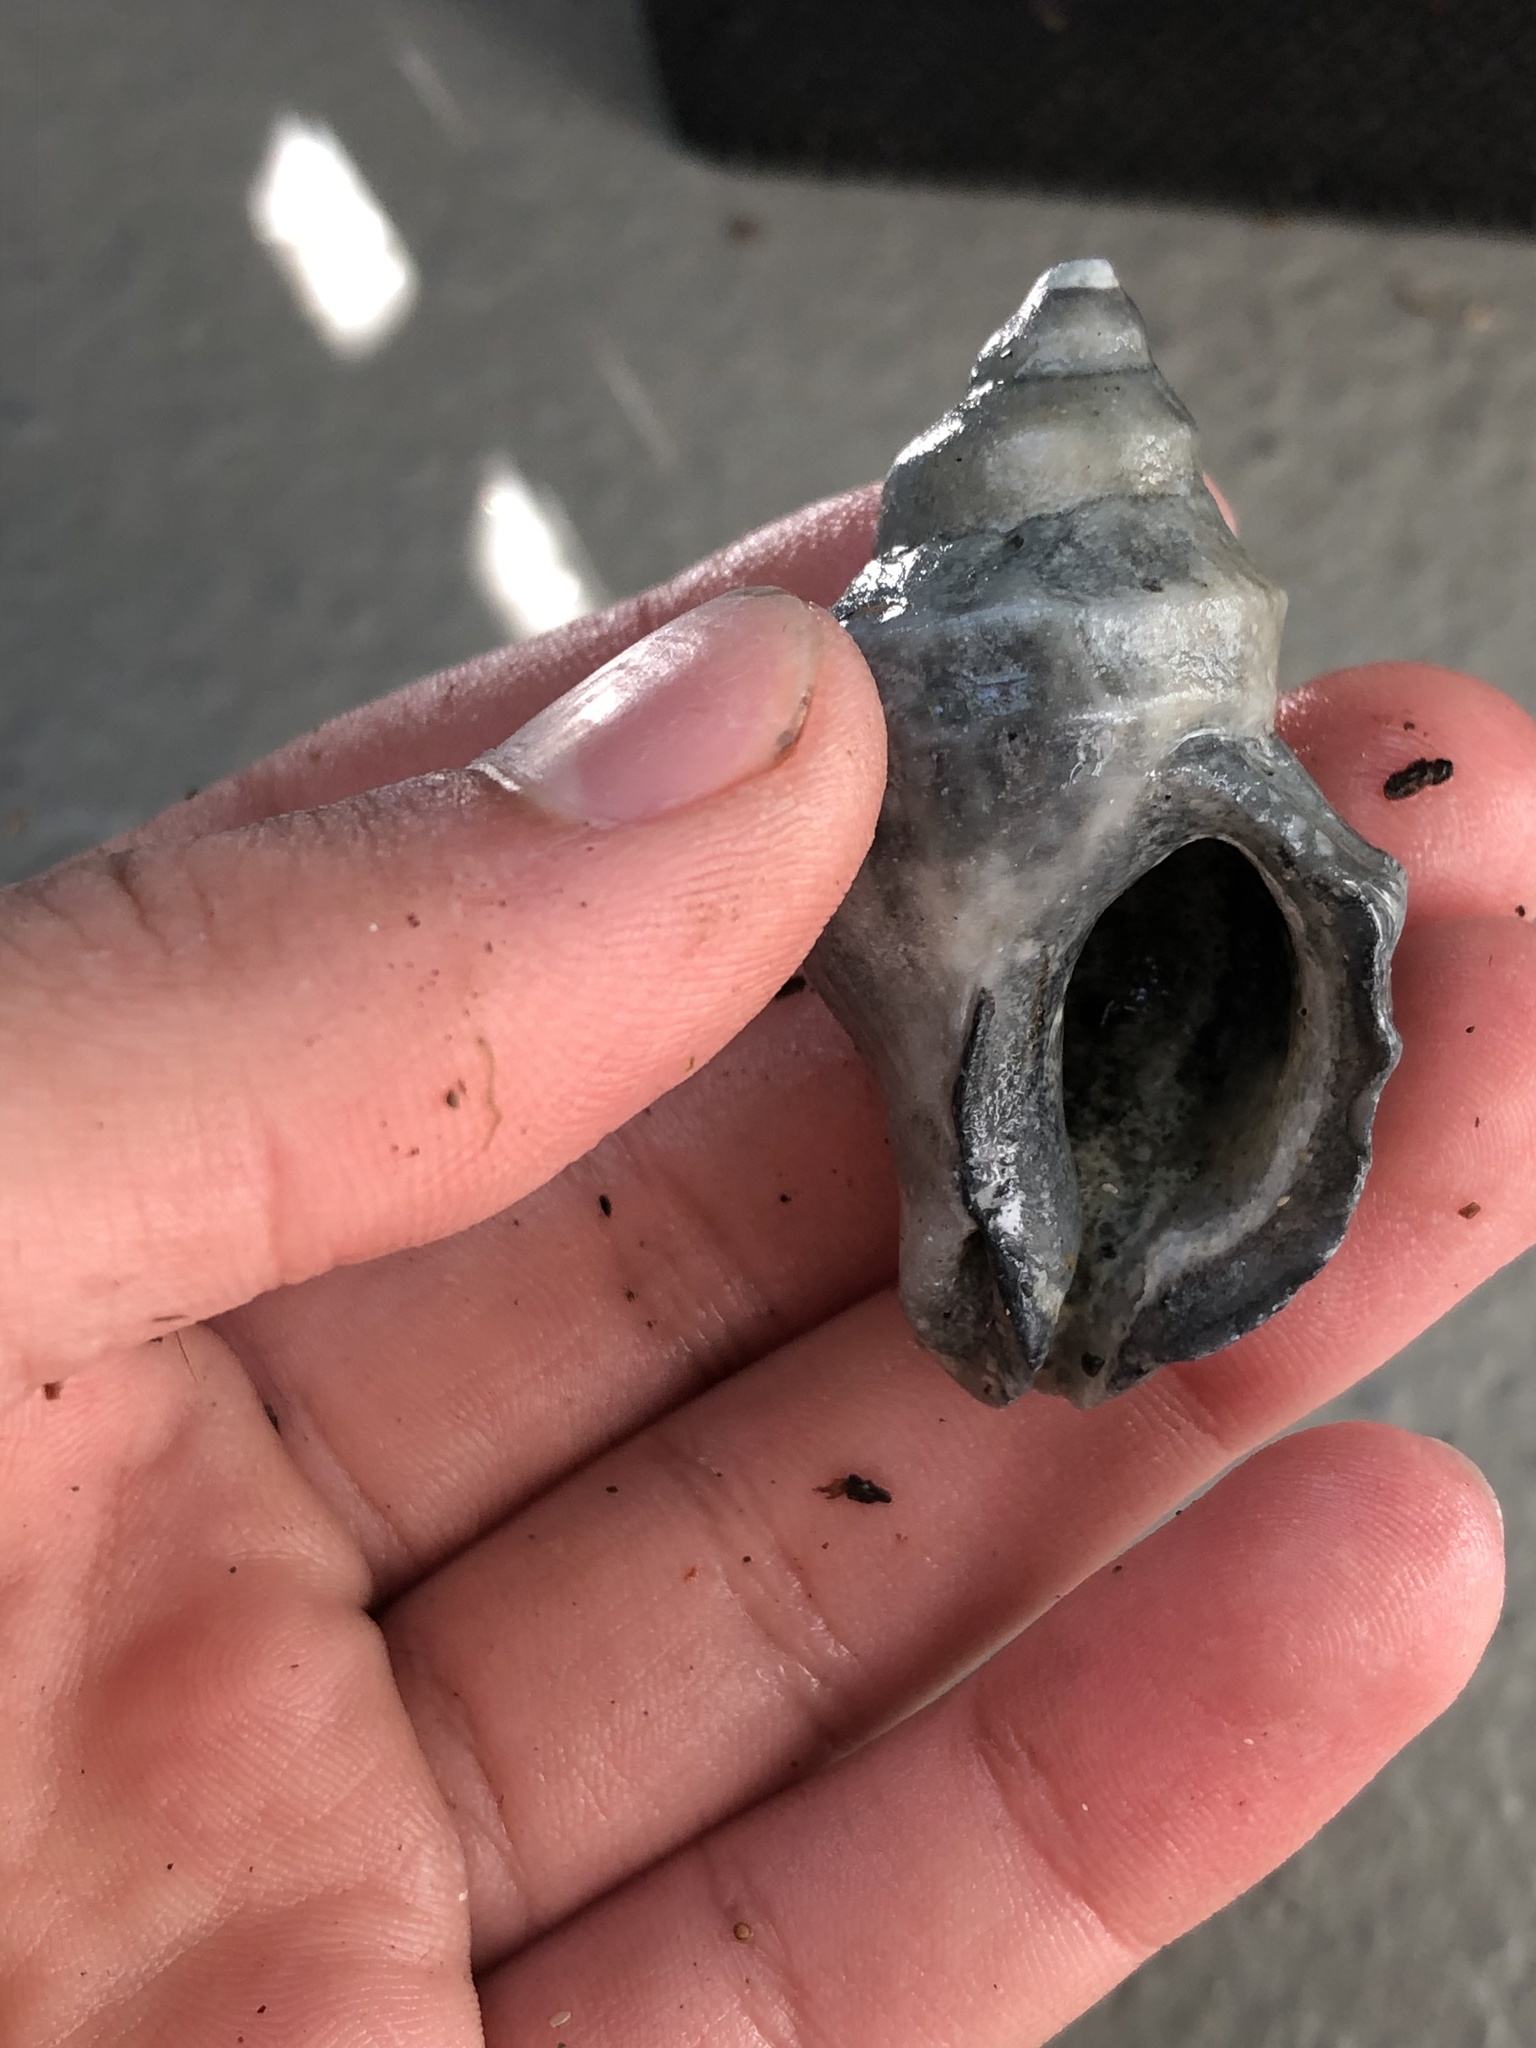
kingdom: Animalia
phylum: Mollusca
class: Gastropoda
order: Neogastropoda
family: Muricidae
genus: Nucella
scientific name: Nucella lamellosa
